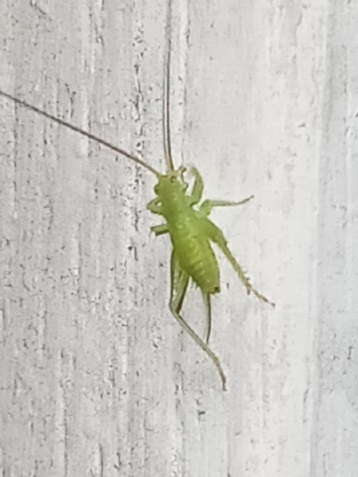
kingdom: Animalia
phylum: Arthropoda
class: Insecta
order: Orthoptera
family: Trigonidiidae
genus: Cyrtoxipha
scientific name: Cyrtoxipha columbiana
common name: Columbian trig
